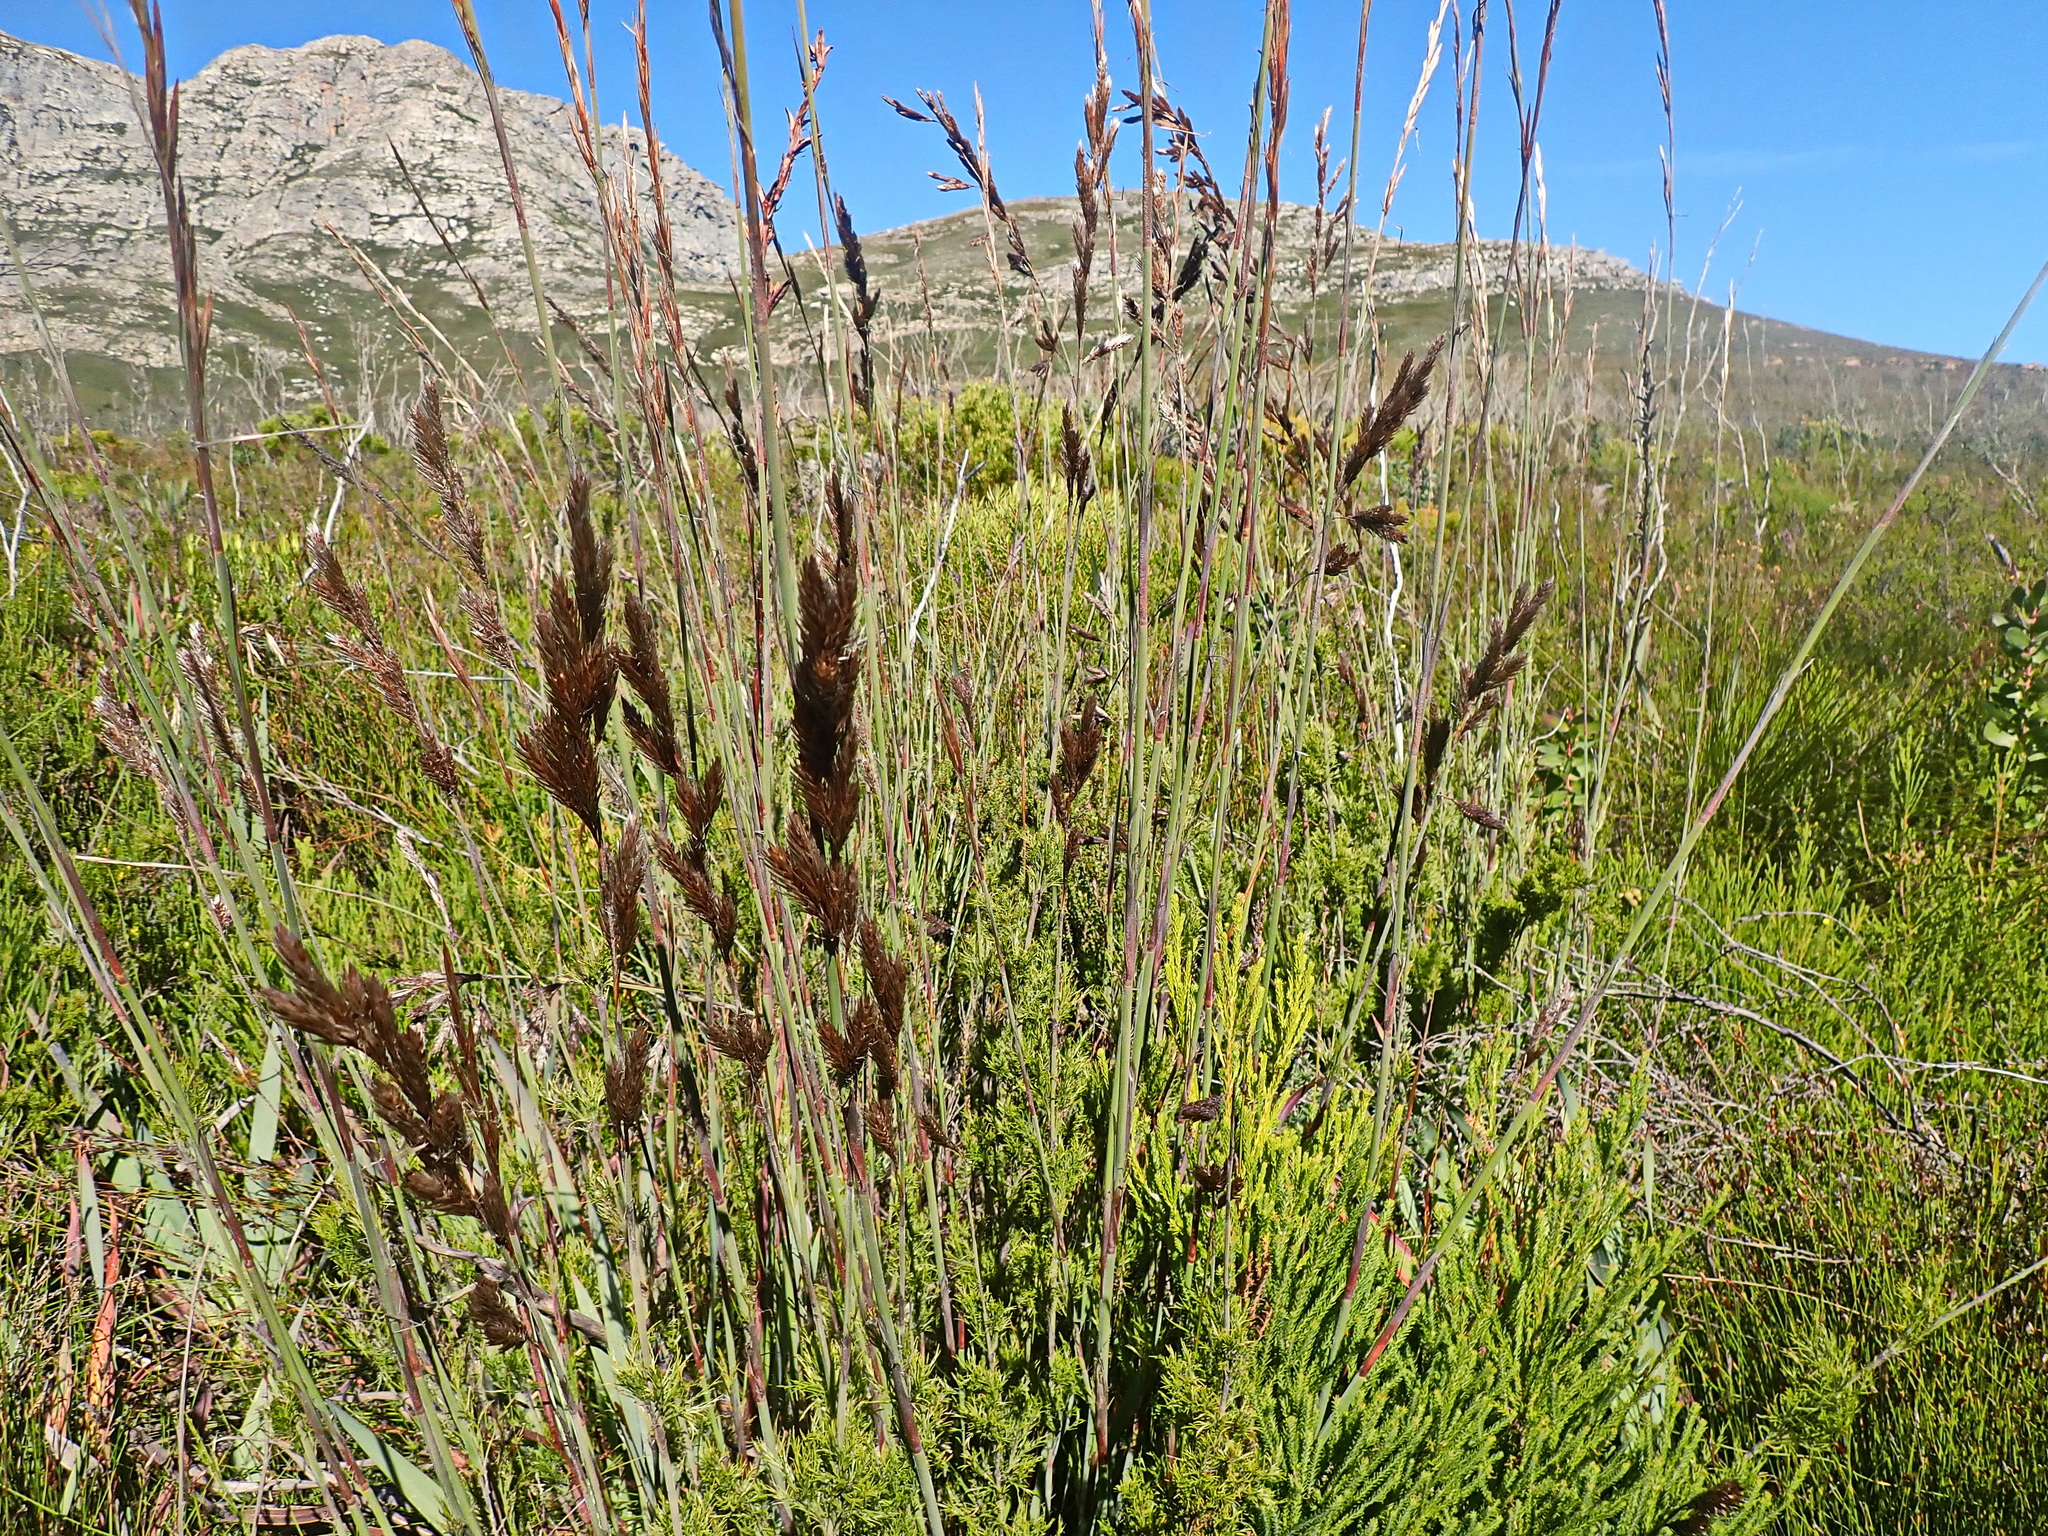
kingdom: Plantae
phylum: Tracheophyta
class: Liliopsida
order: Poales
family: Restionaceae
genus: Thamnochortus
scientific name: Thamnochortus cinereus
